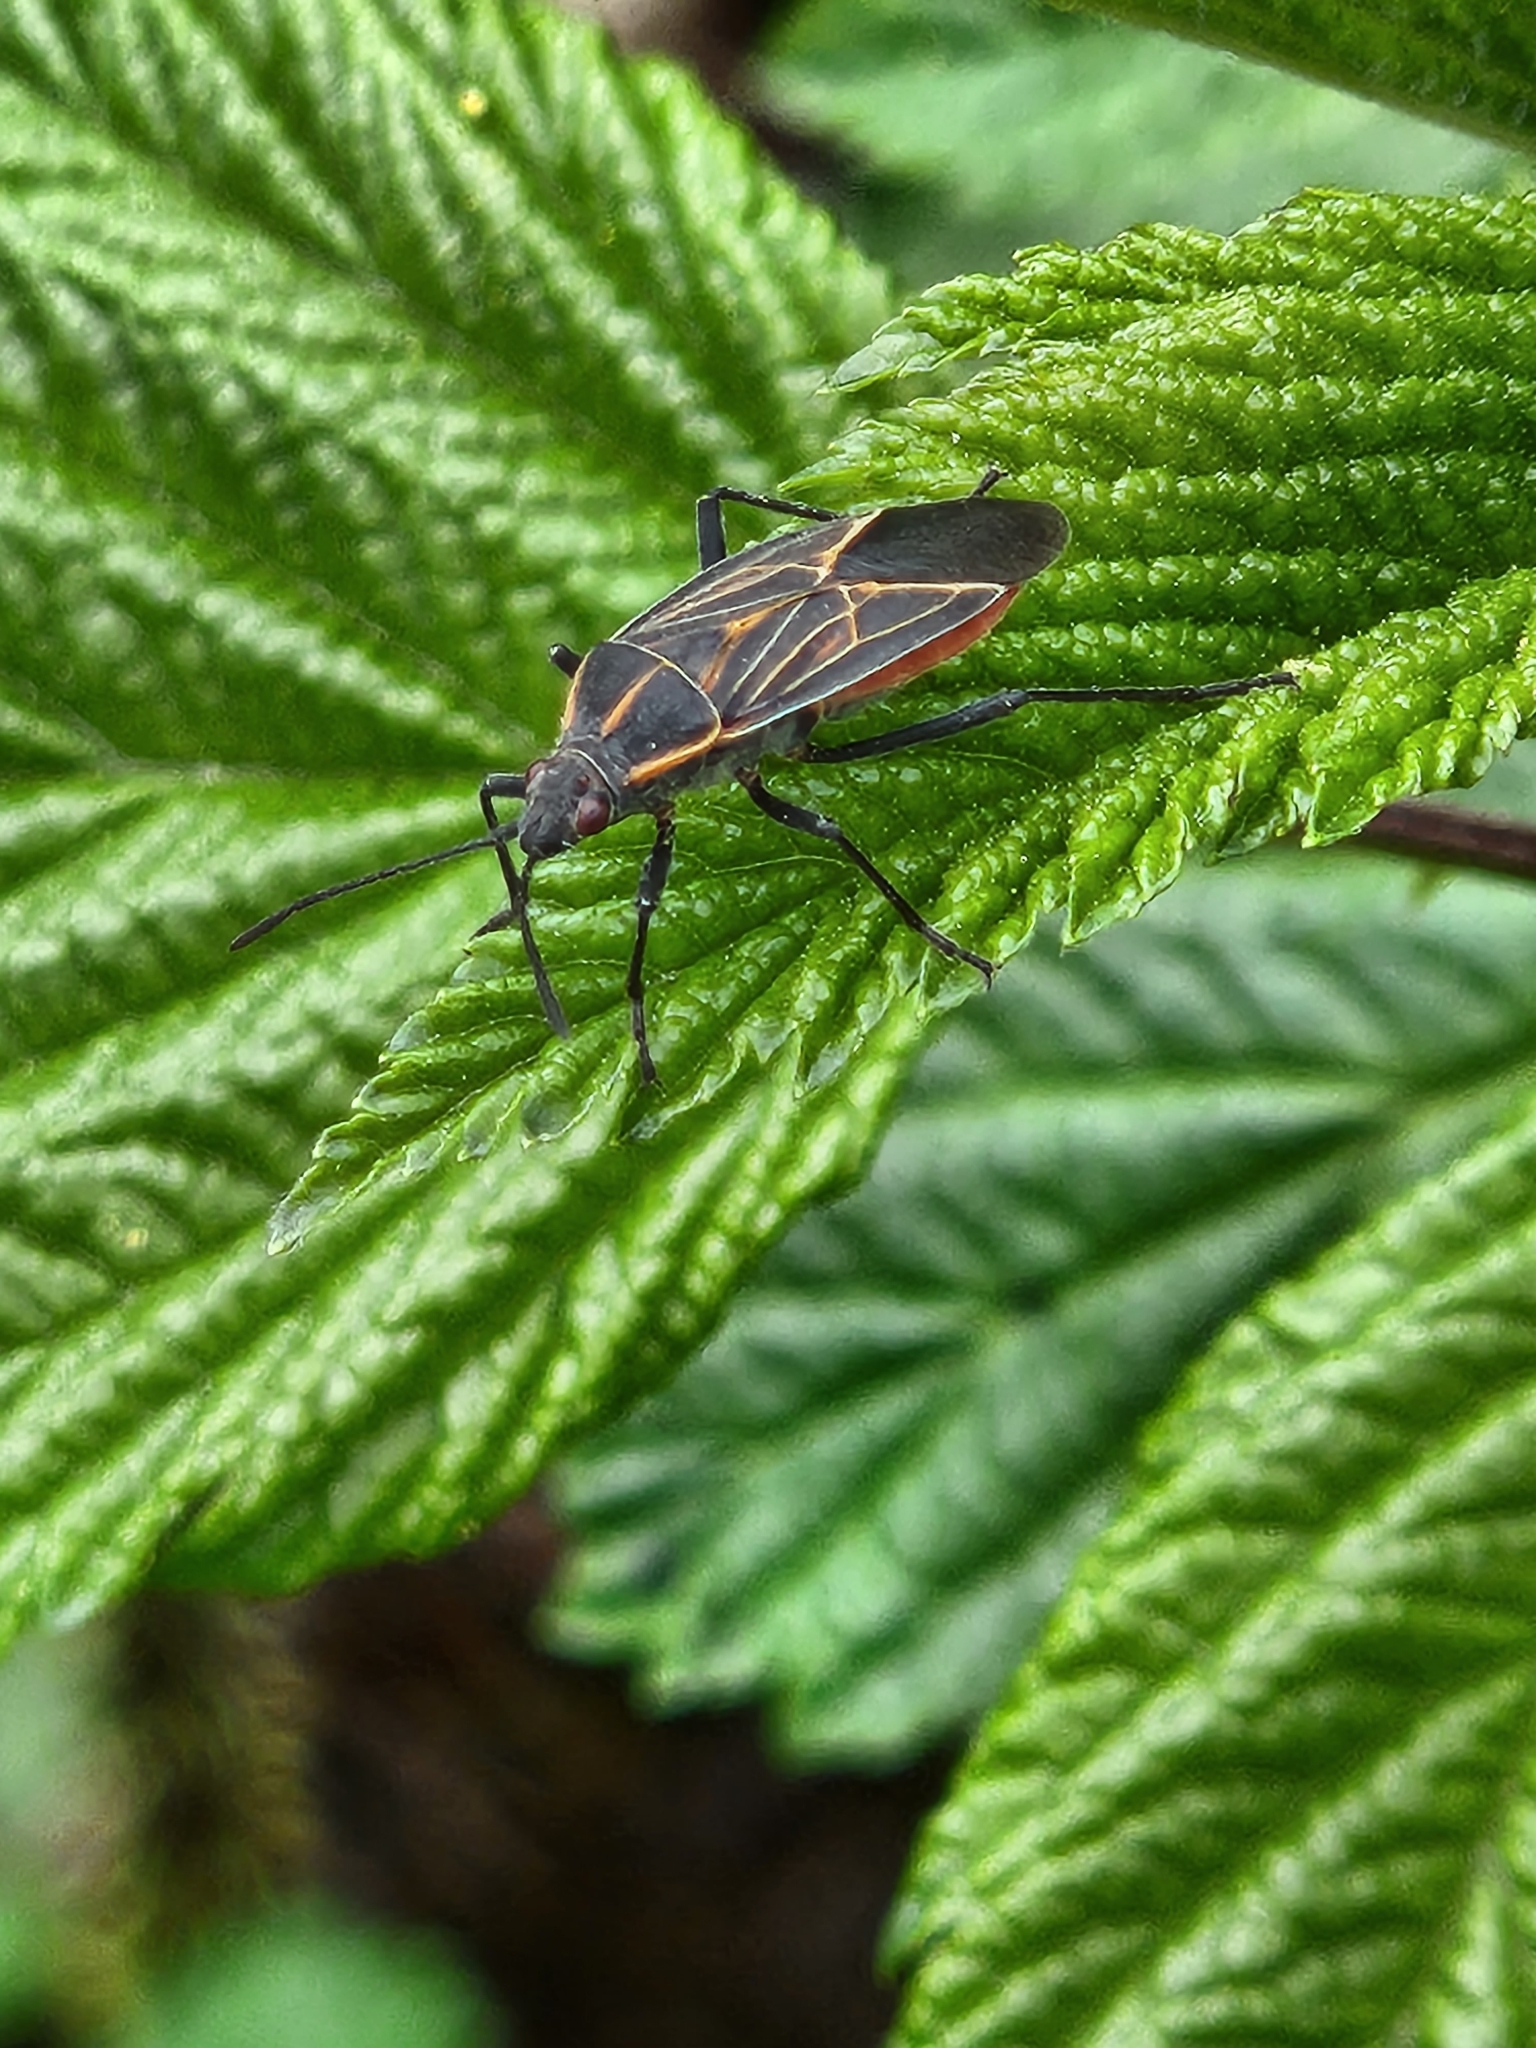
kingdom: Animalia
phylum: Arthropoda
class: Insecta
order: Hemiptera
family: Rhopalidae
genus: Boisea
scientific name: Boisea rubrolineata
